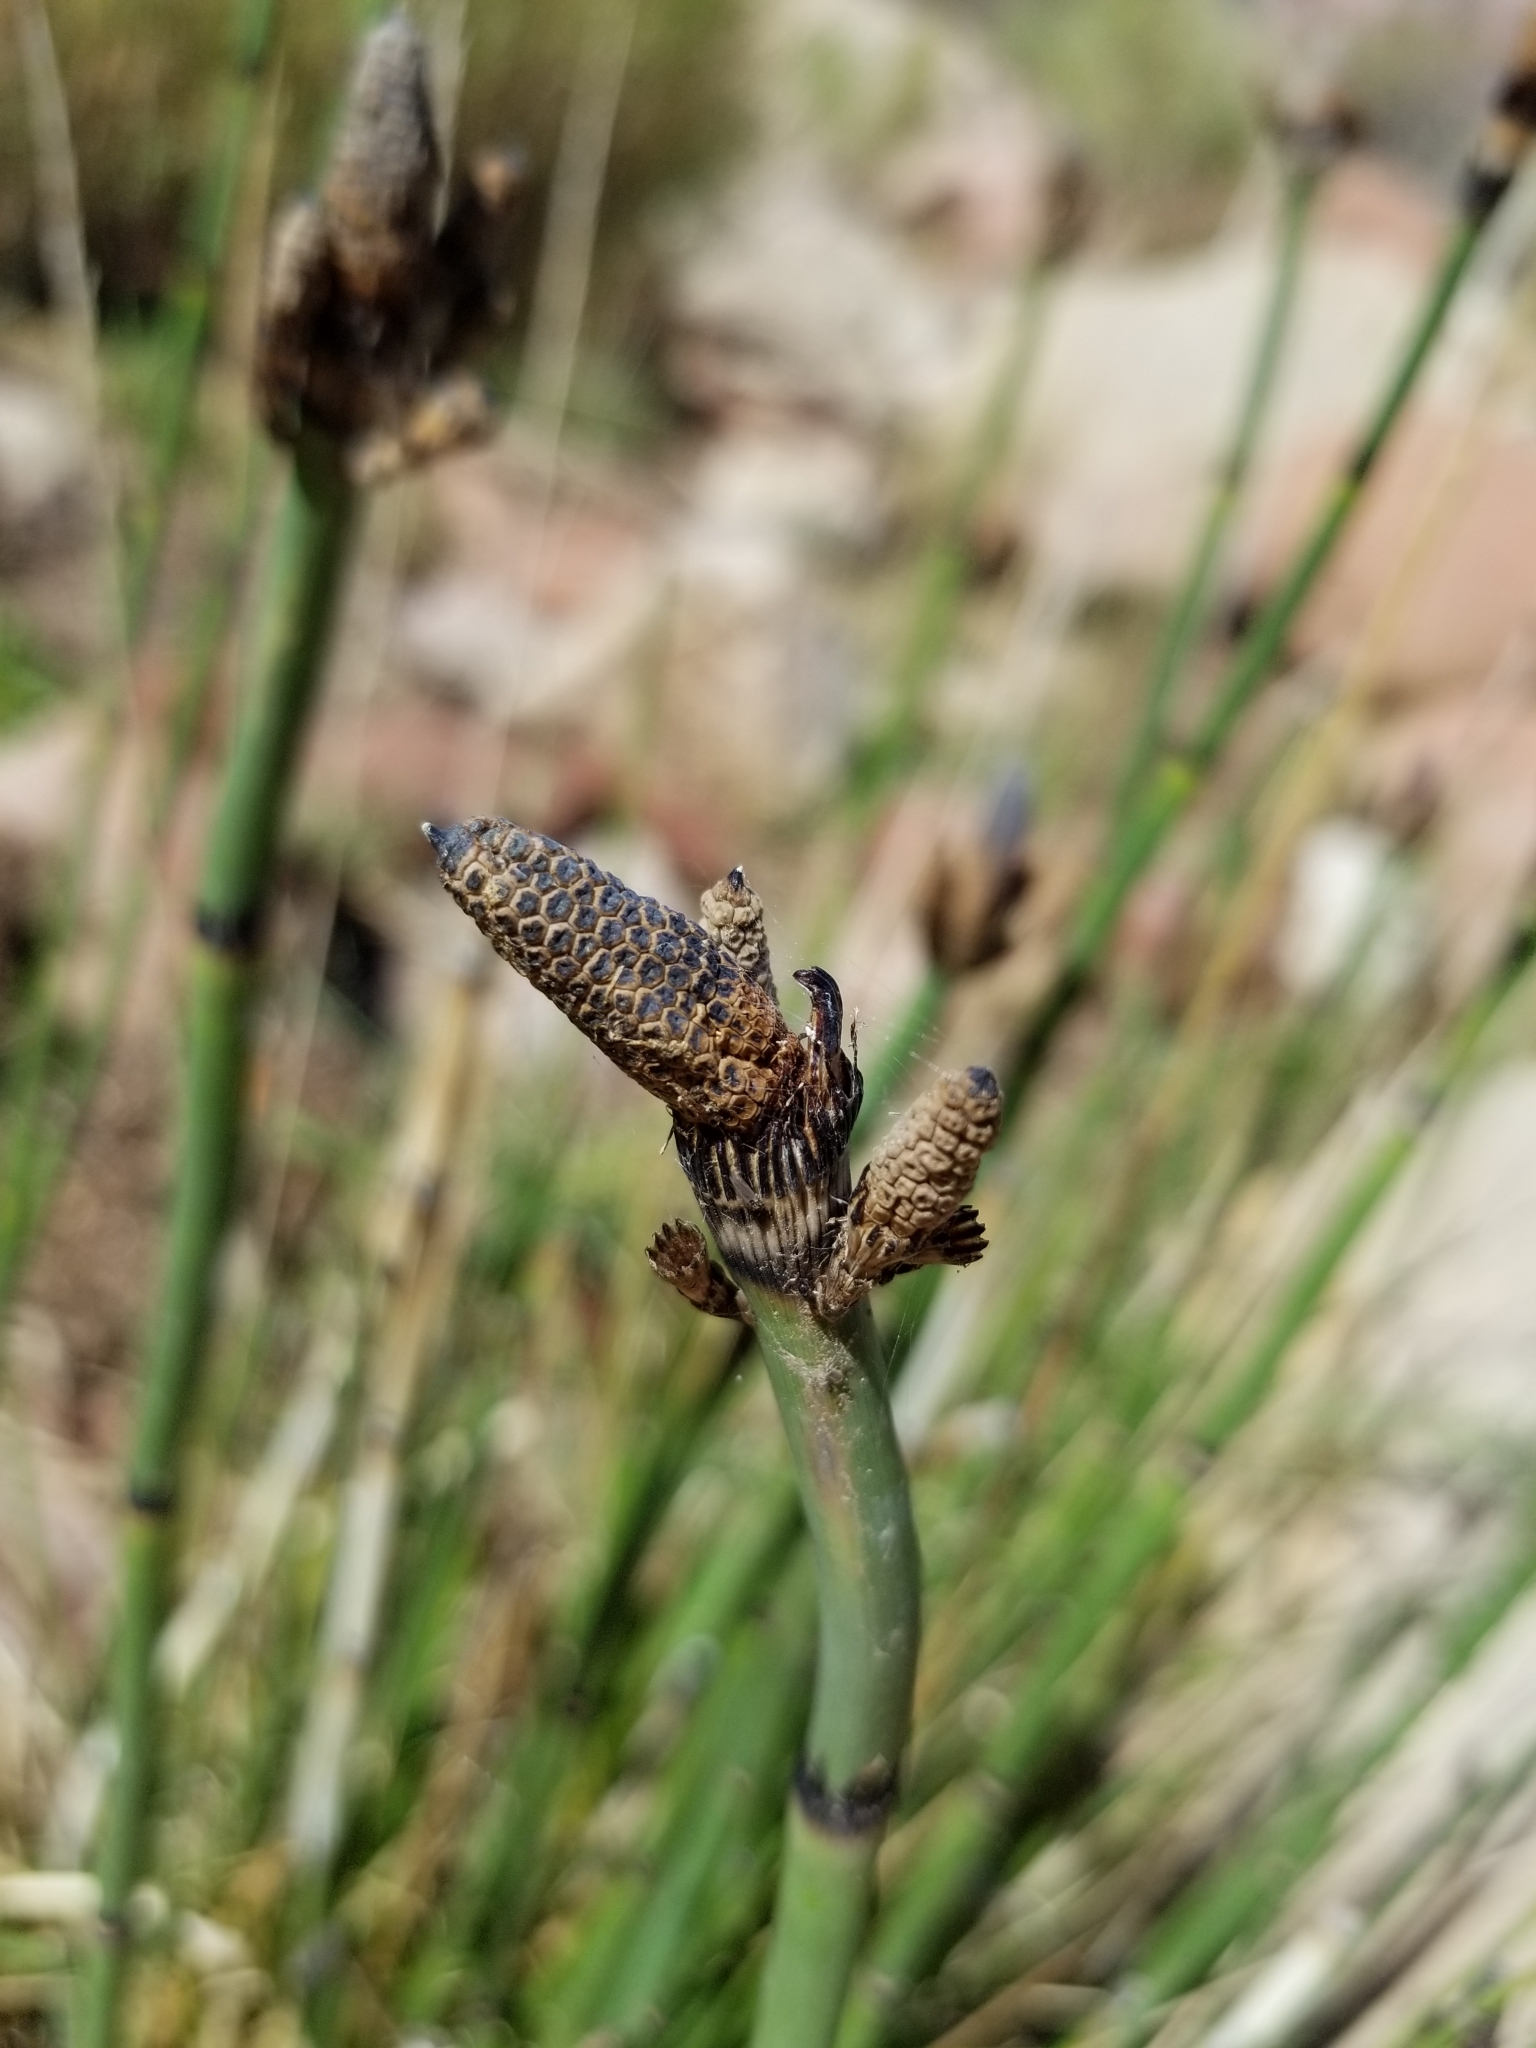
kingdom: Plantae
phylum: Tracheophyta
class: Polypodiopsida
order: Equisetales
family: Equisetaceae
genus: Equisetum
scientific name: Equisetum hyemale
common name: Rough horsetail
